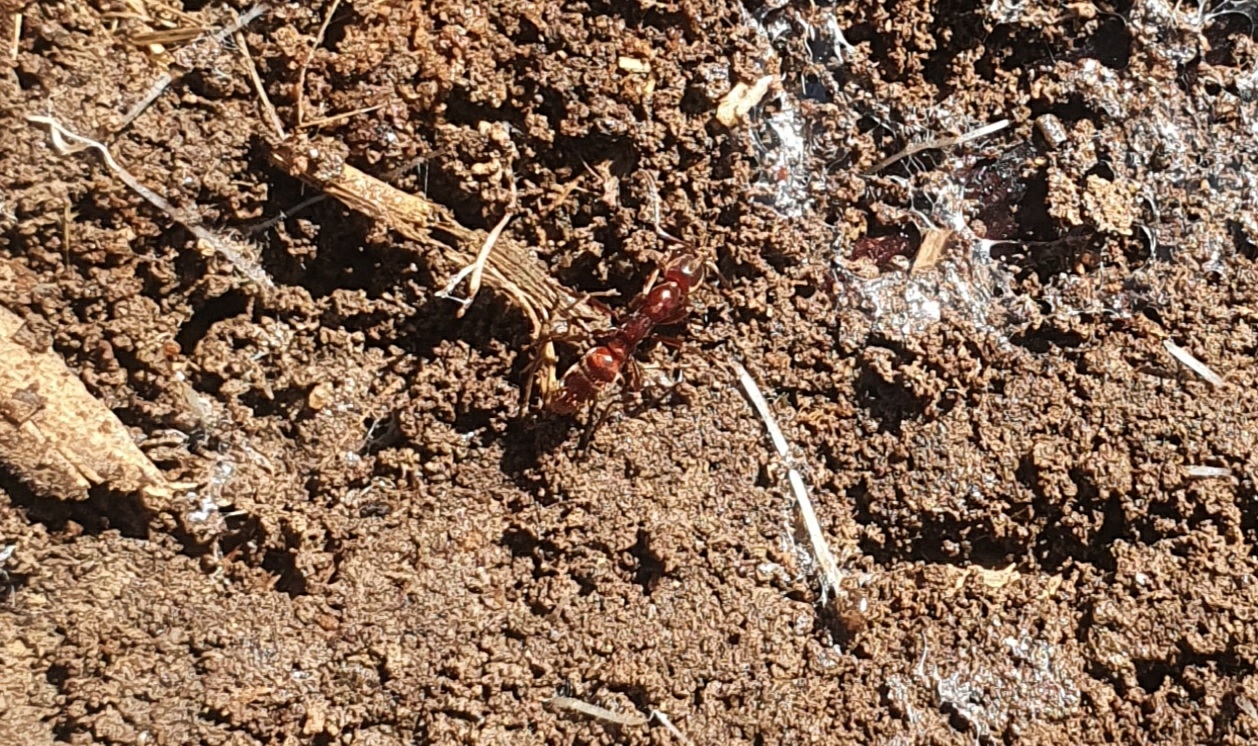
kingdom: Animalia
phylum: Arthropoda
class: Insecta
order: Hymenoptera
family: Formicidae
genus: Austroponera
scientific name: Austroponera
